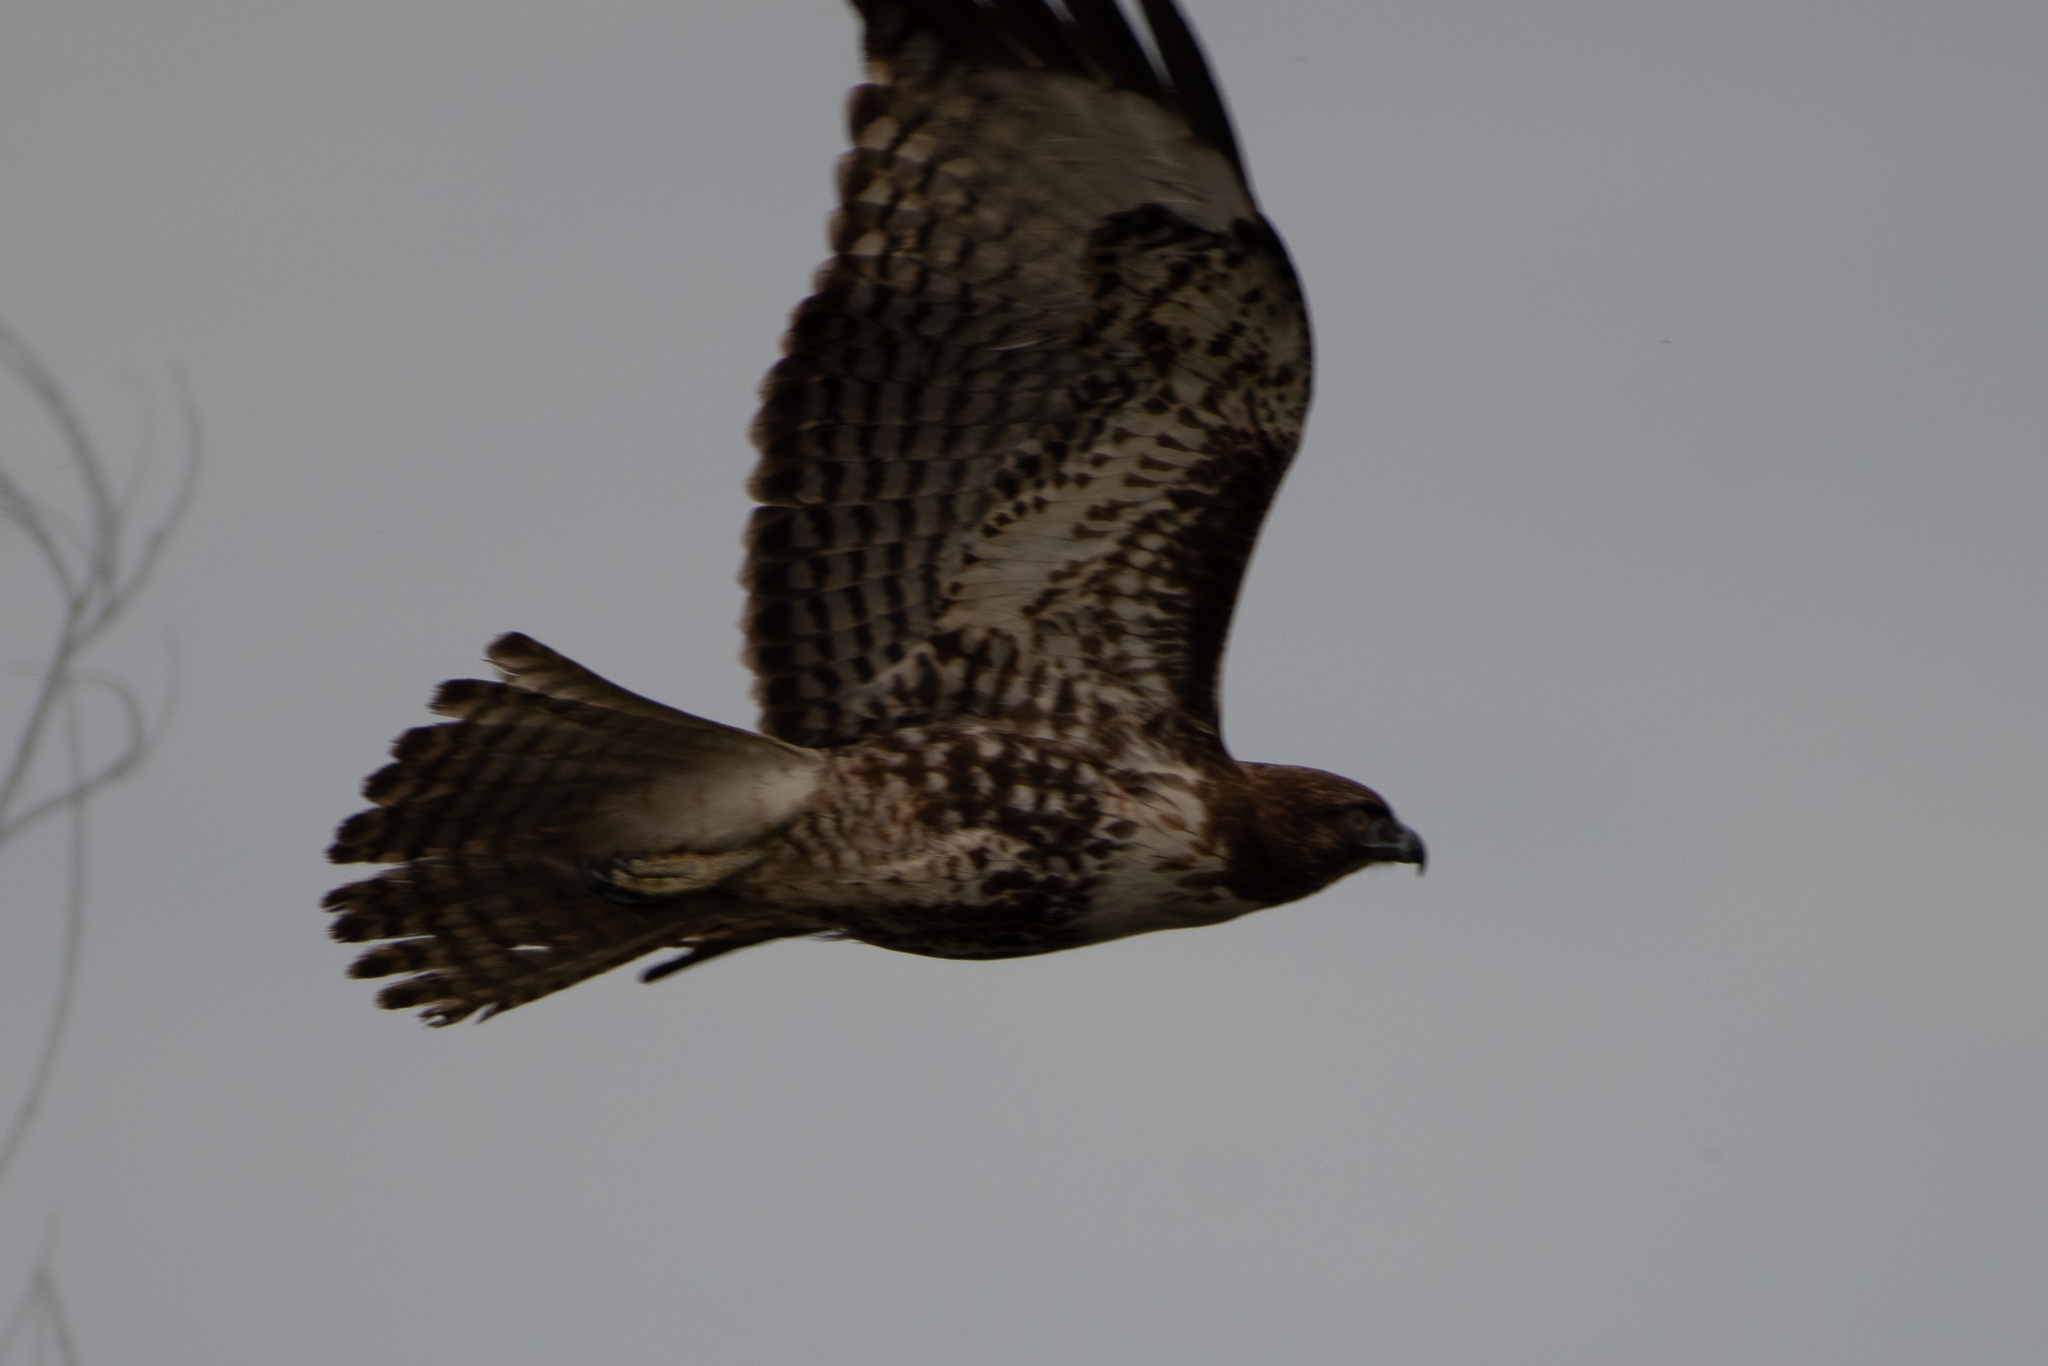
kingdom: Animalia
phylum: Chordata
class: Aves
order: Accipitriformes
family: Accipitridae
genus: Buteo
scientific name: Buteo jamaicensis
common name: Red-tailed hawk
